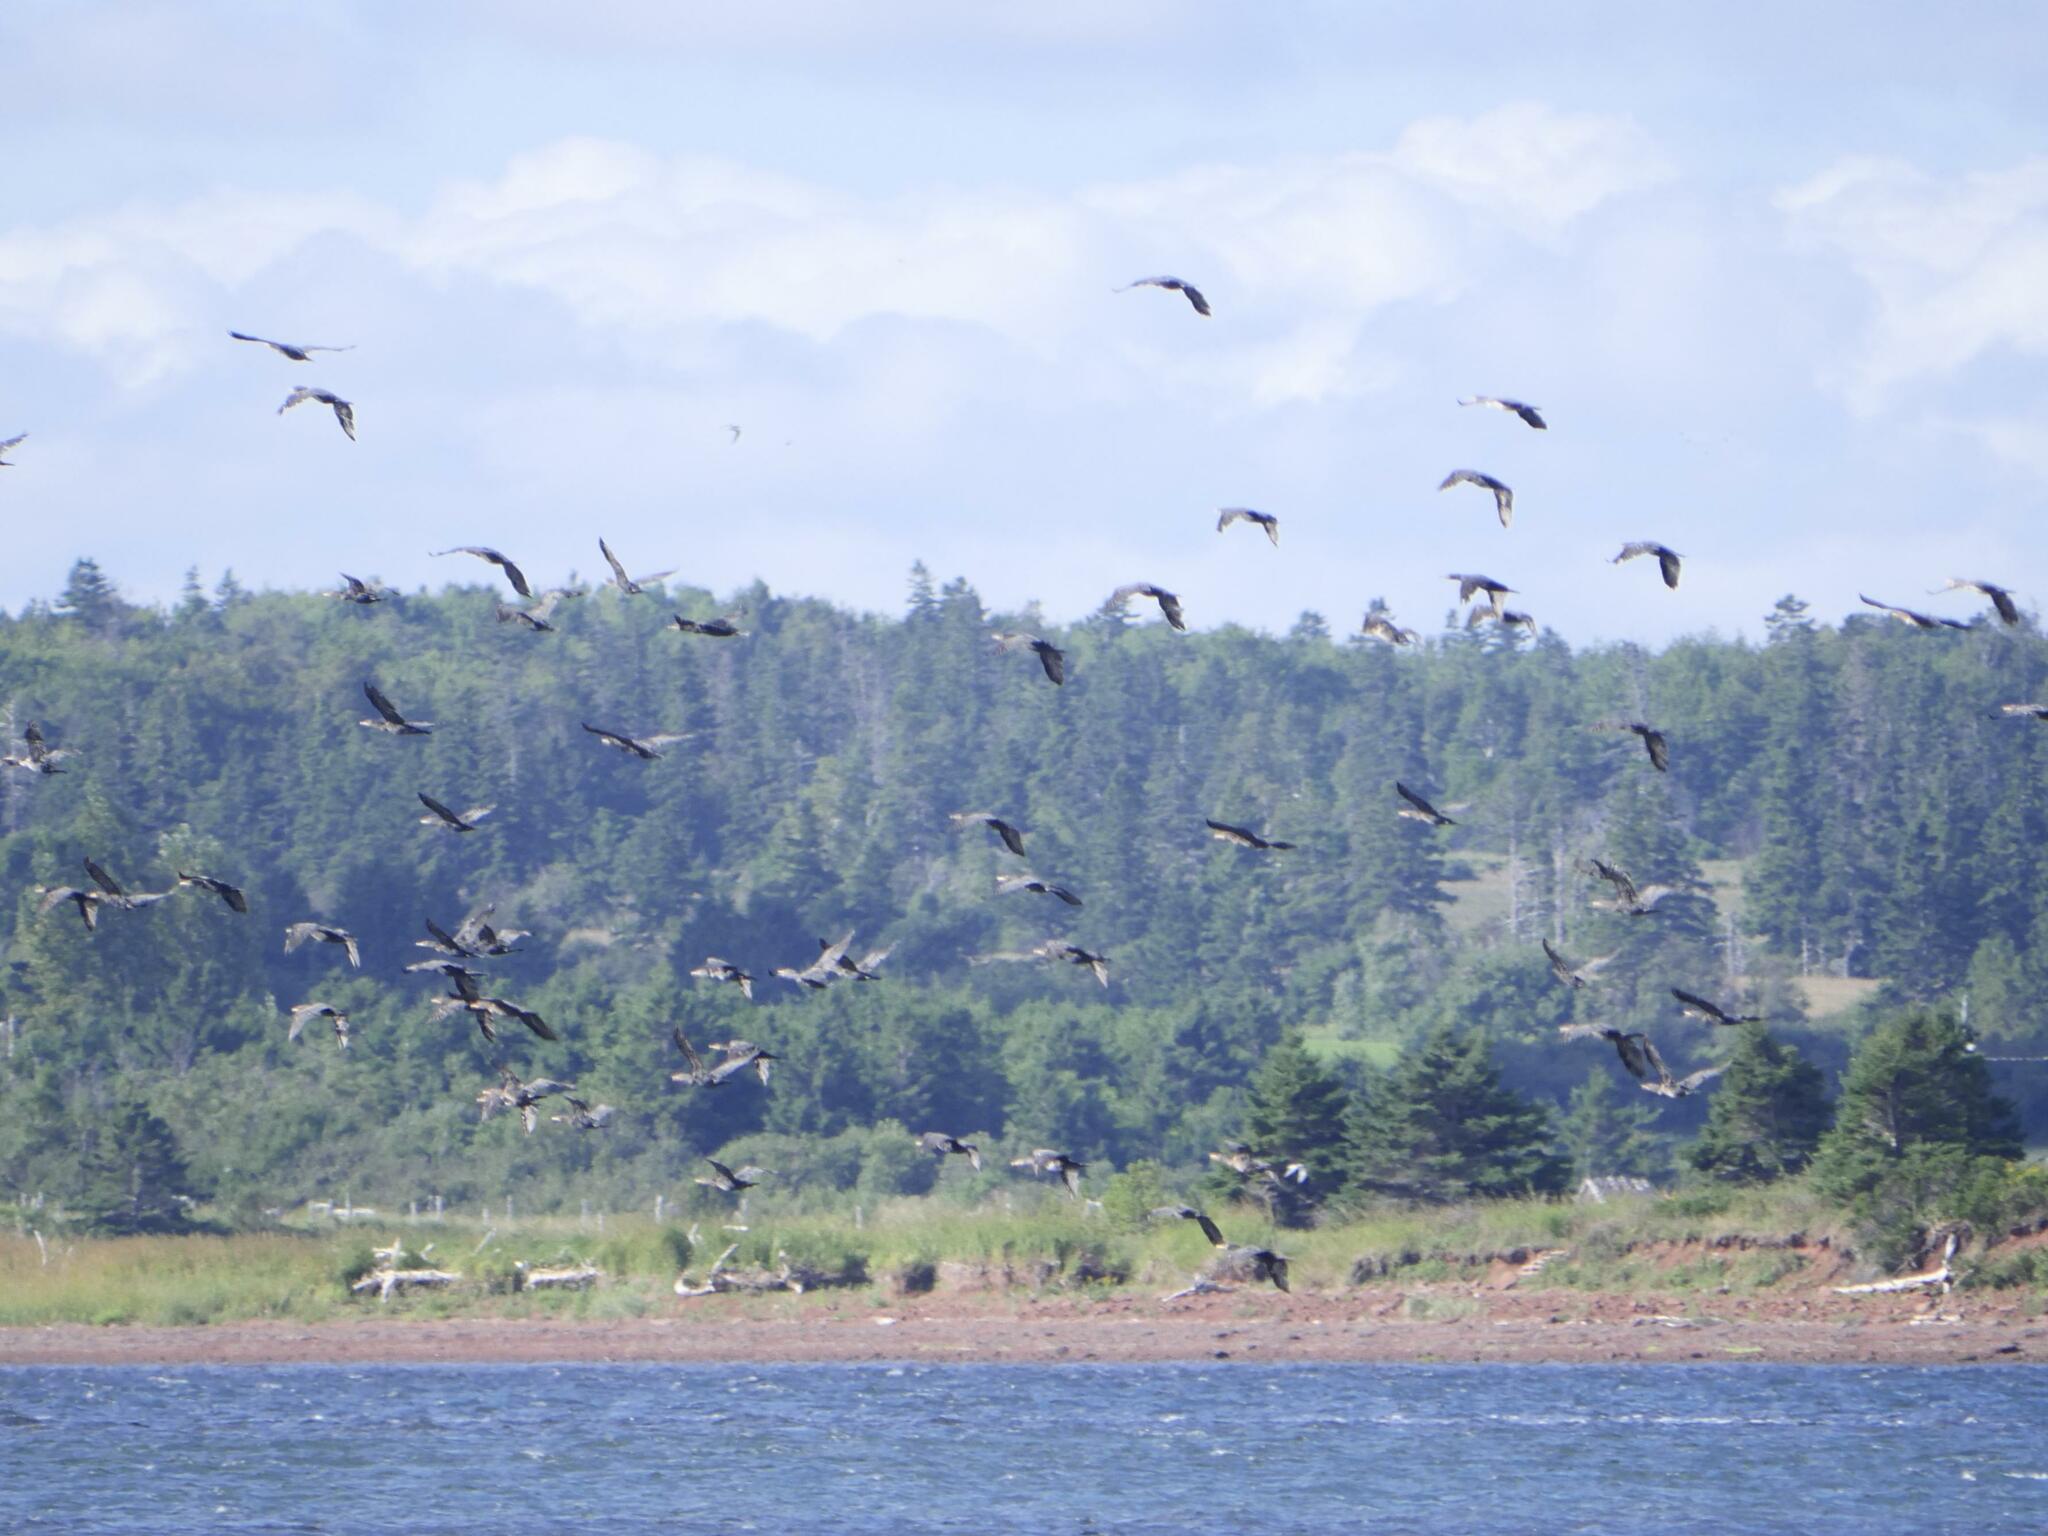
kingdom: Animalia
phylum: Chordata
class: Aves
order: Suliformes
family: Phalacrocoracidae
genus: Phalacrocorax
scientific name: Phalacrocorax auritus
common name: Double-crested cormorant
